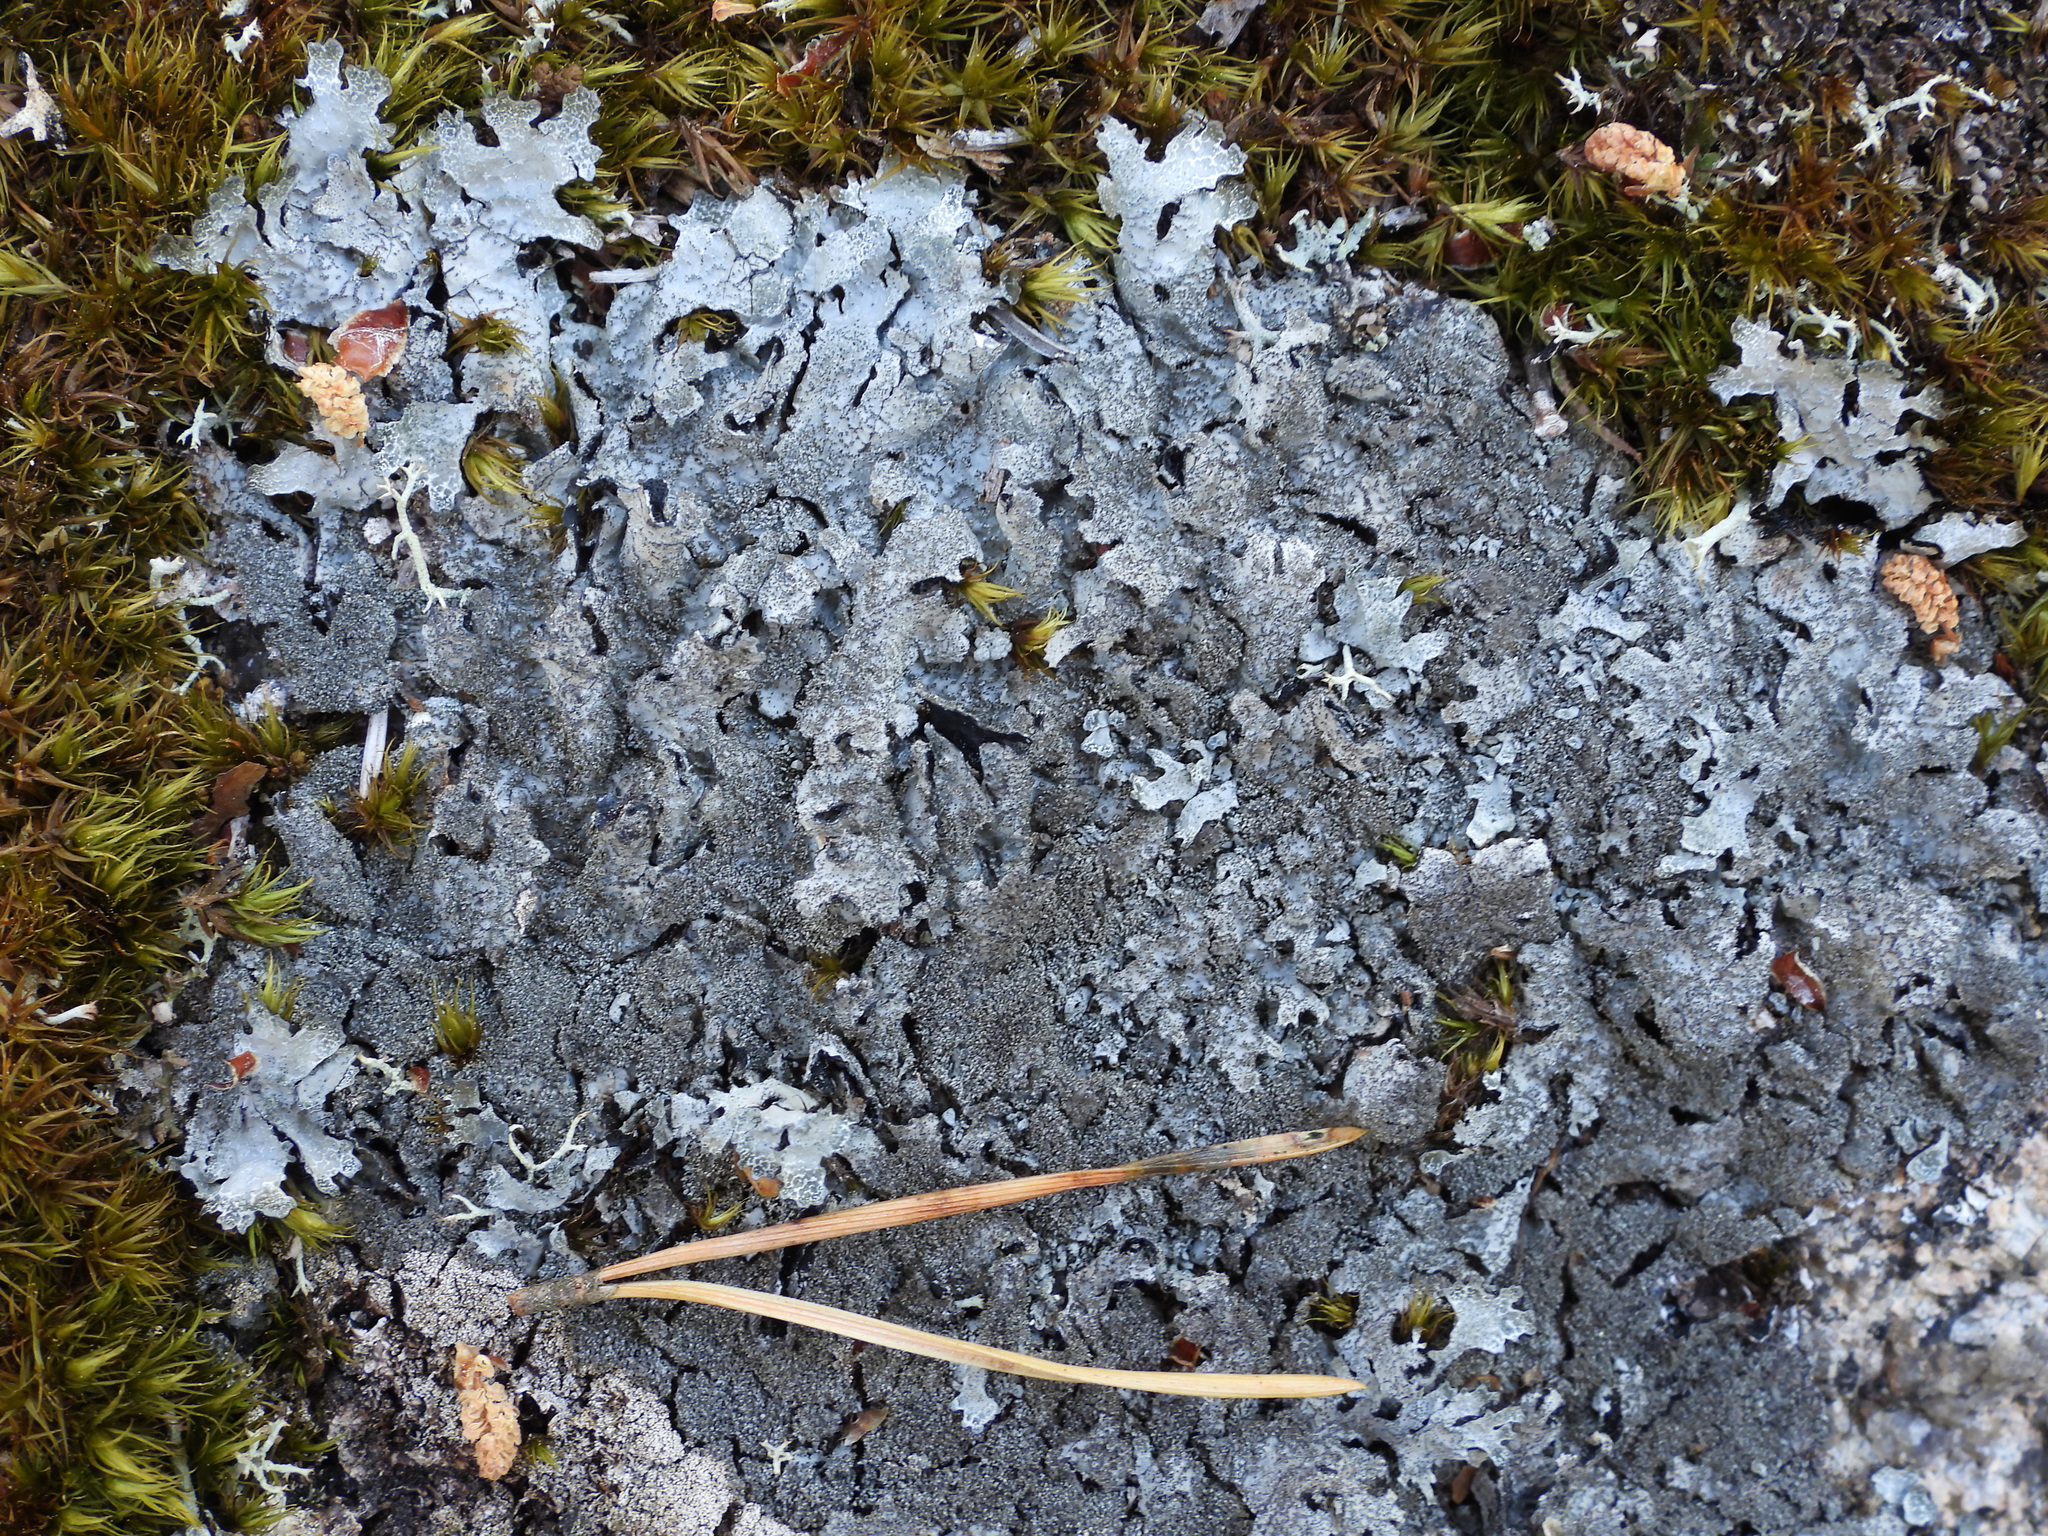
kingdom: Fungi
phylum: Ascomycota
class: Lecanoromycetes
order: Lecanorales
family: Parmeliaceae
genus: Parmelia
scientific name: Parmelia saxatilis
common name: Salted shield lichen
